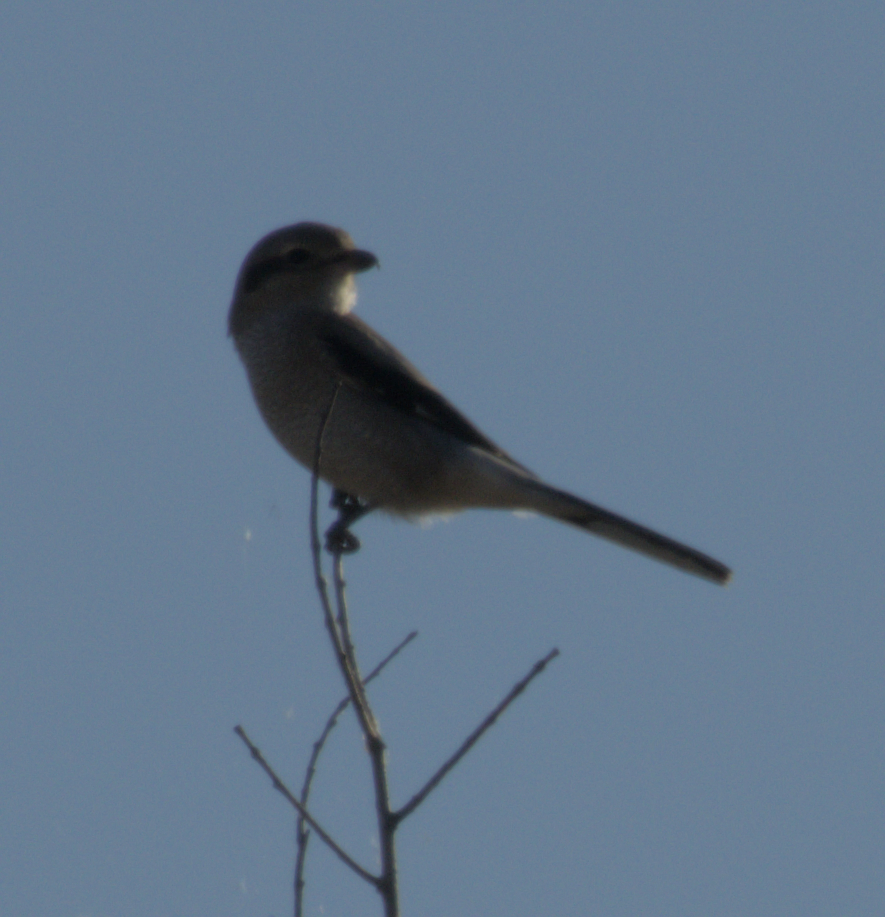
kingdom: Animalia
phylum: Chordata
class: Aves
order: Passeriformes
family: Laniidae
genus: Lanius
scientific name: Lanius borealis
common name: Northern shrike
